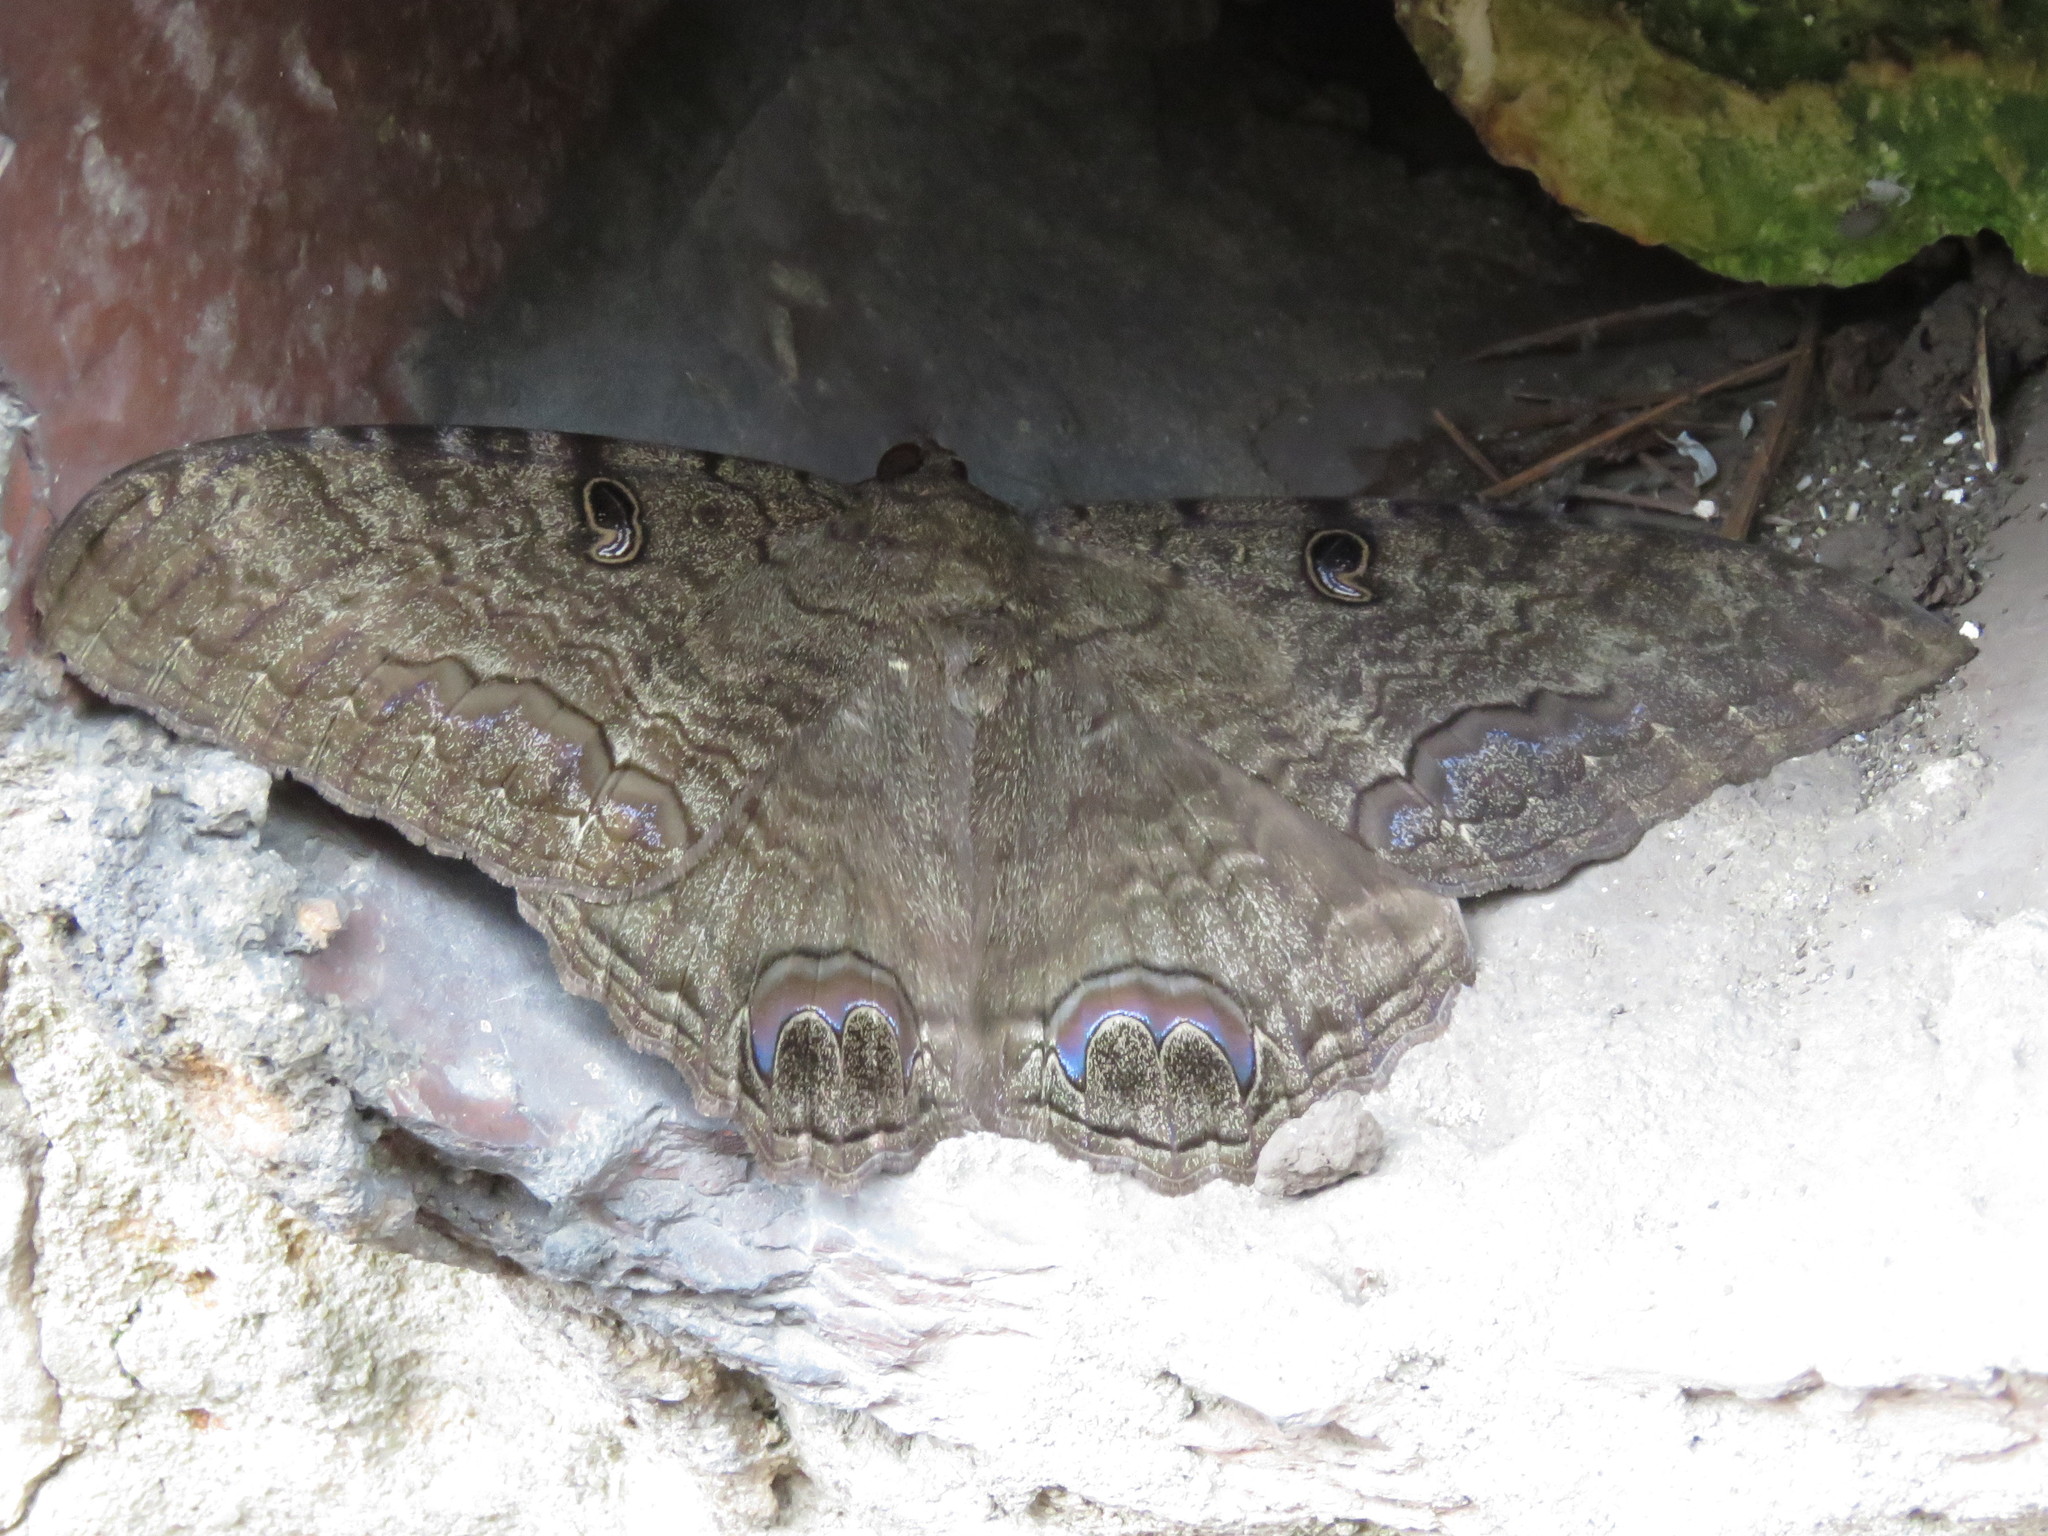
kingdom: Animalia
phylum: Arthropoda
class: Insecta
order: Lepidoptera
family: Erebidae
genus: Ascalapha
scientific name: Ascalapha odorata
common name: Black witch
